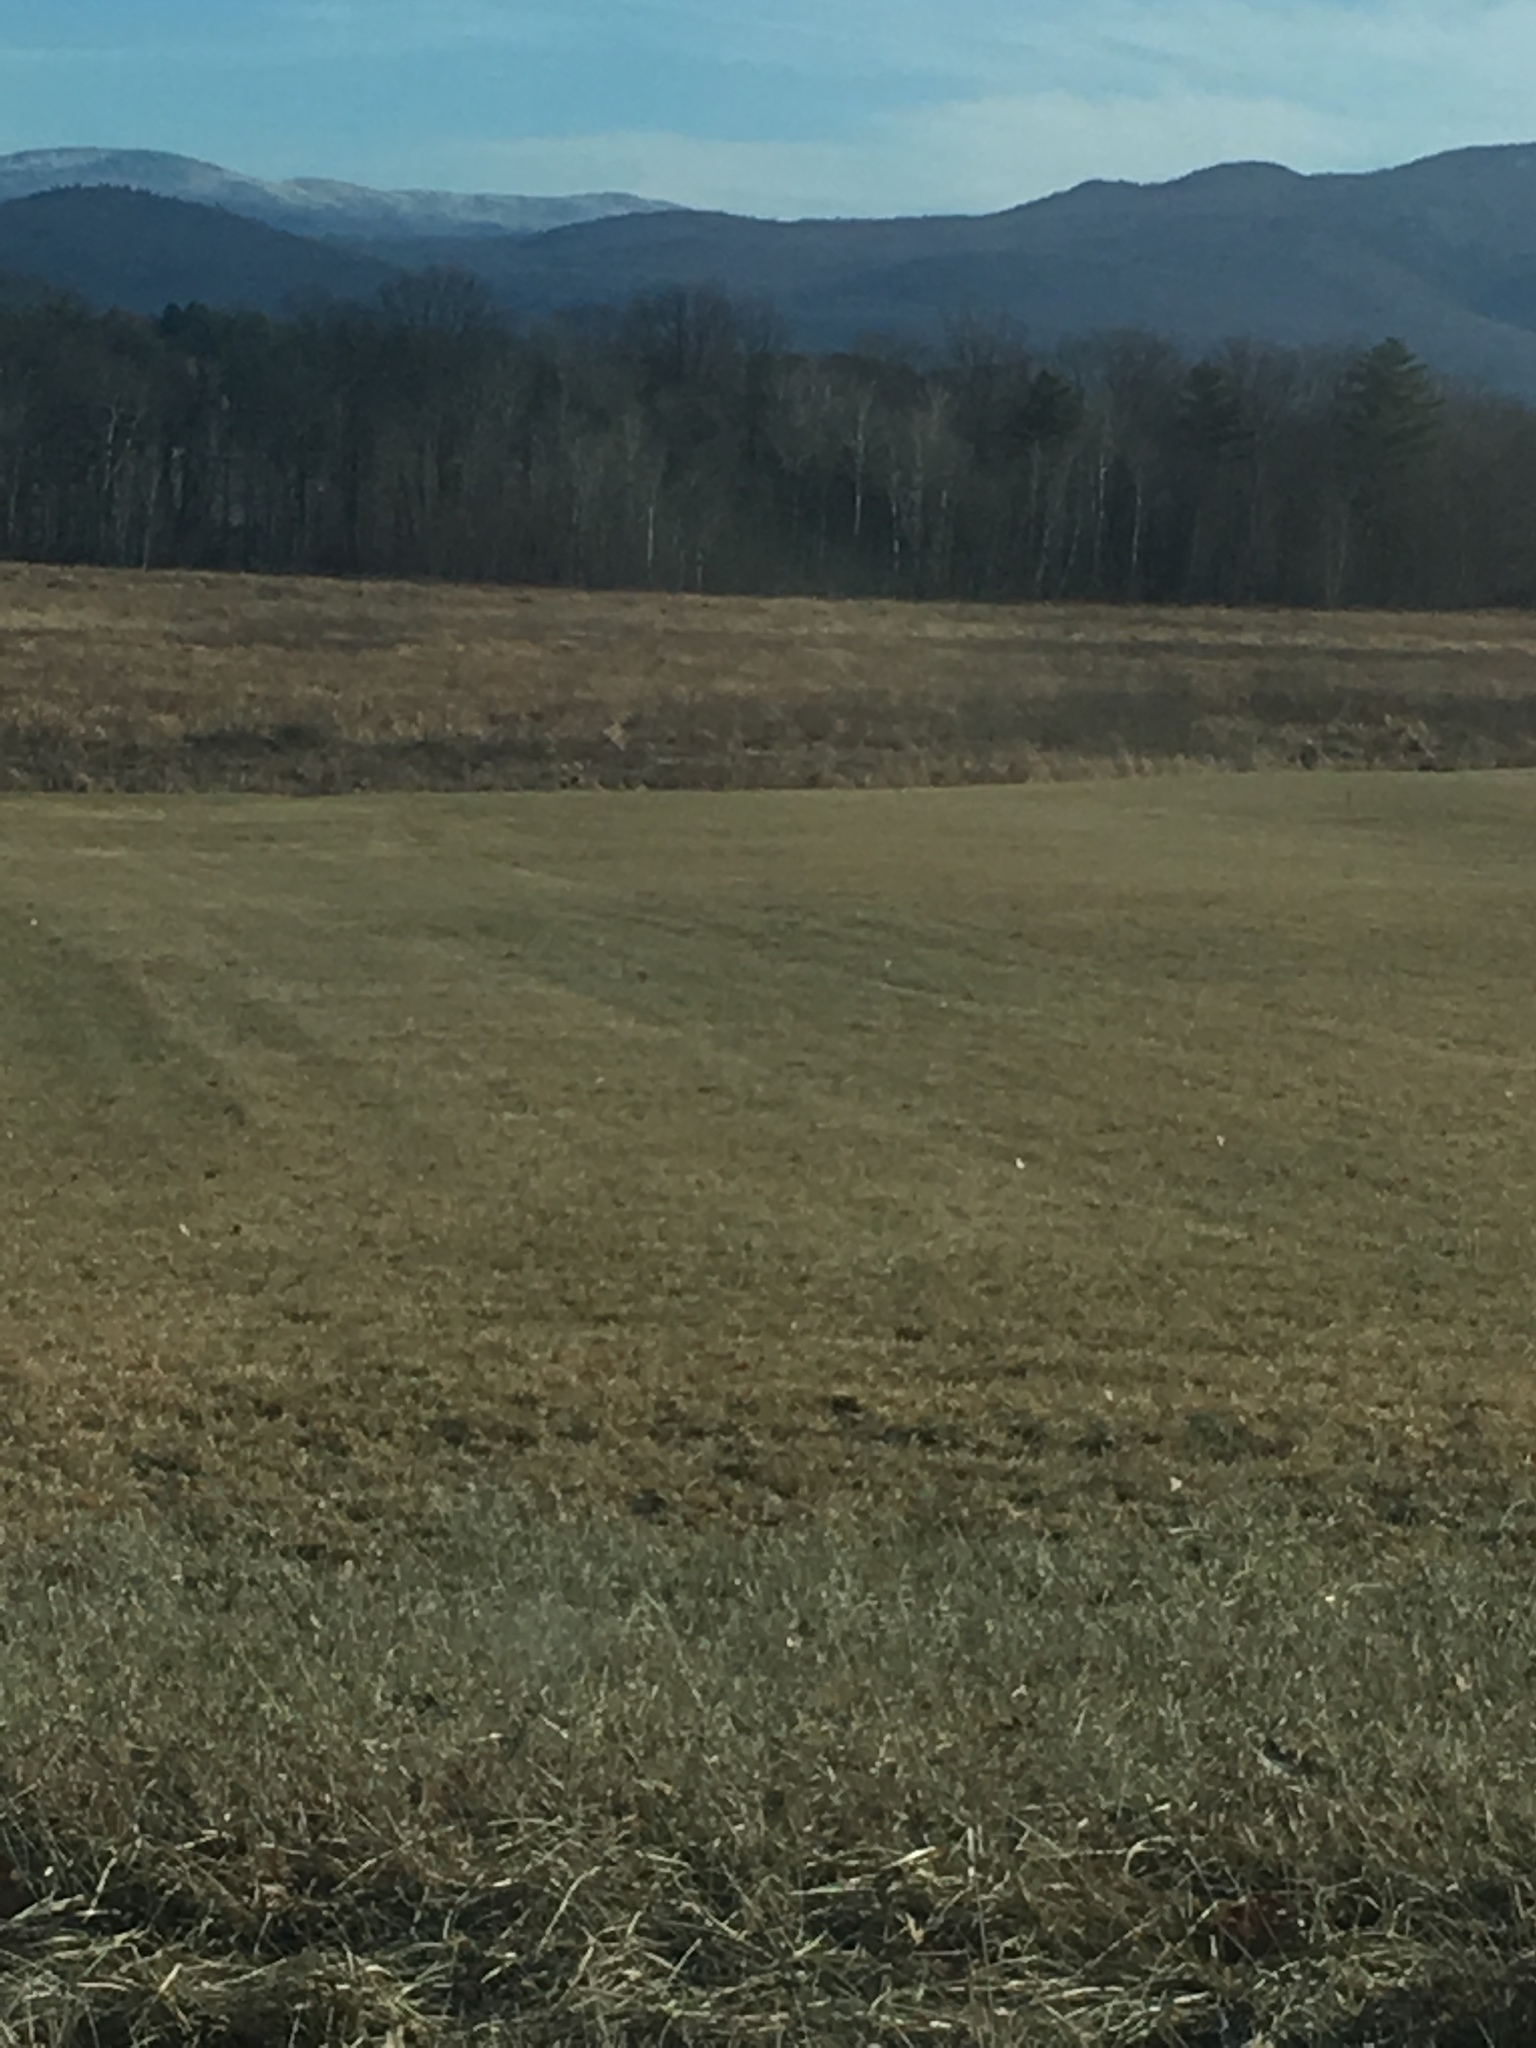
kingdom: Plantae
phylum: Tracheophyta
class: Liliopsida
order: Poales
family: Typhaceae
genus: Typha
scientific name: Typha
